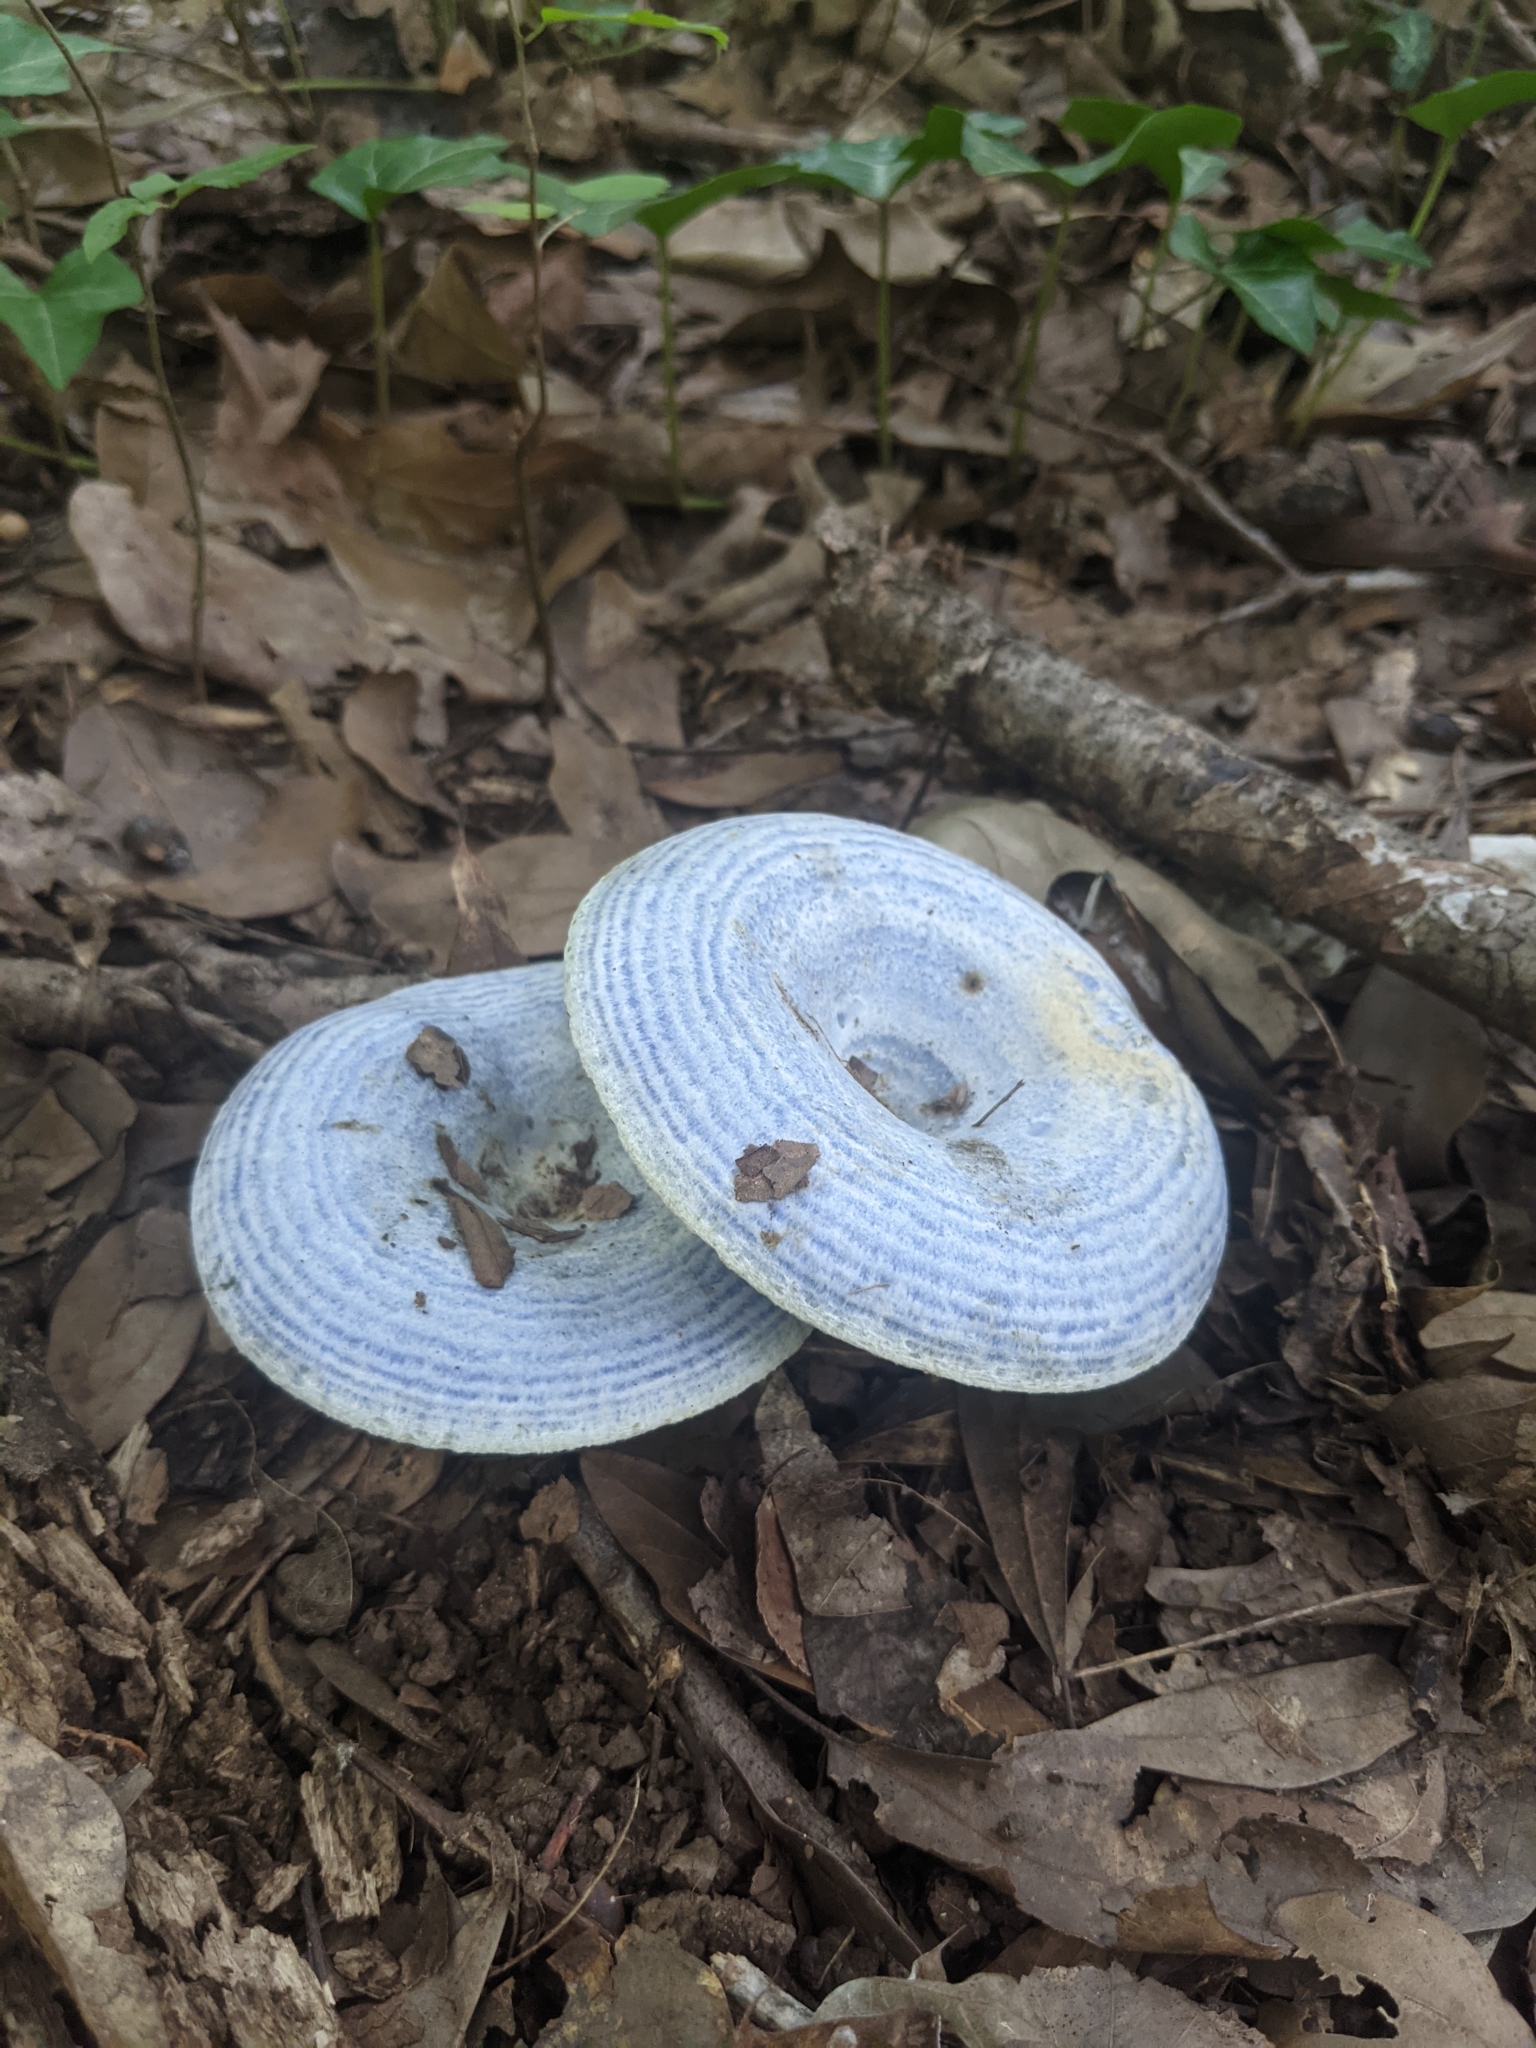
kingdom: Fungi
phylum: Basidiomycota
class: Agaricomycetes
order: Russulales
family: Russulaceae
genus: Lactarius
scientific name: Lactarius indigo
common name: Indigo milk cap
